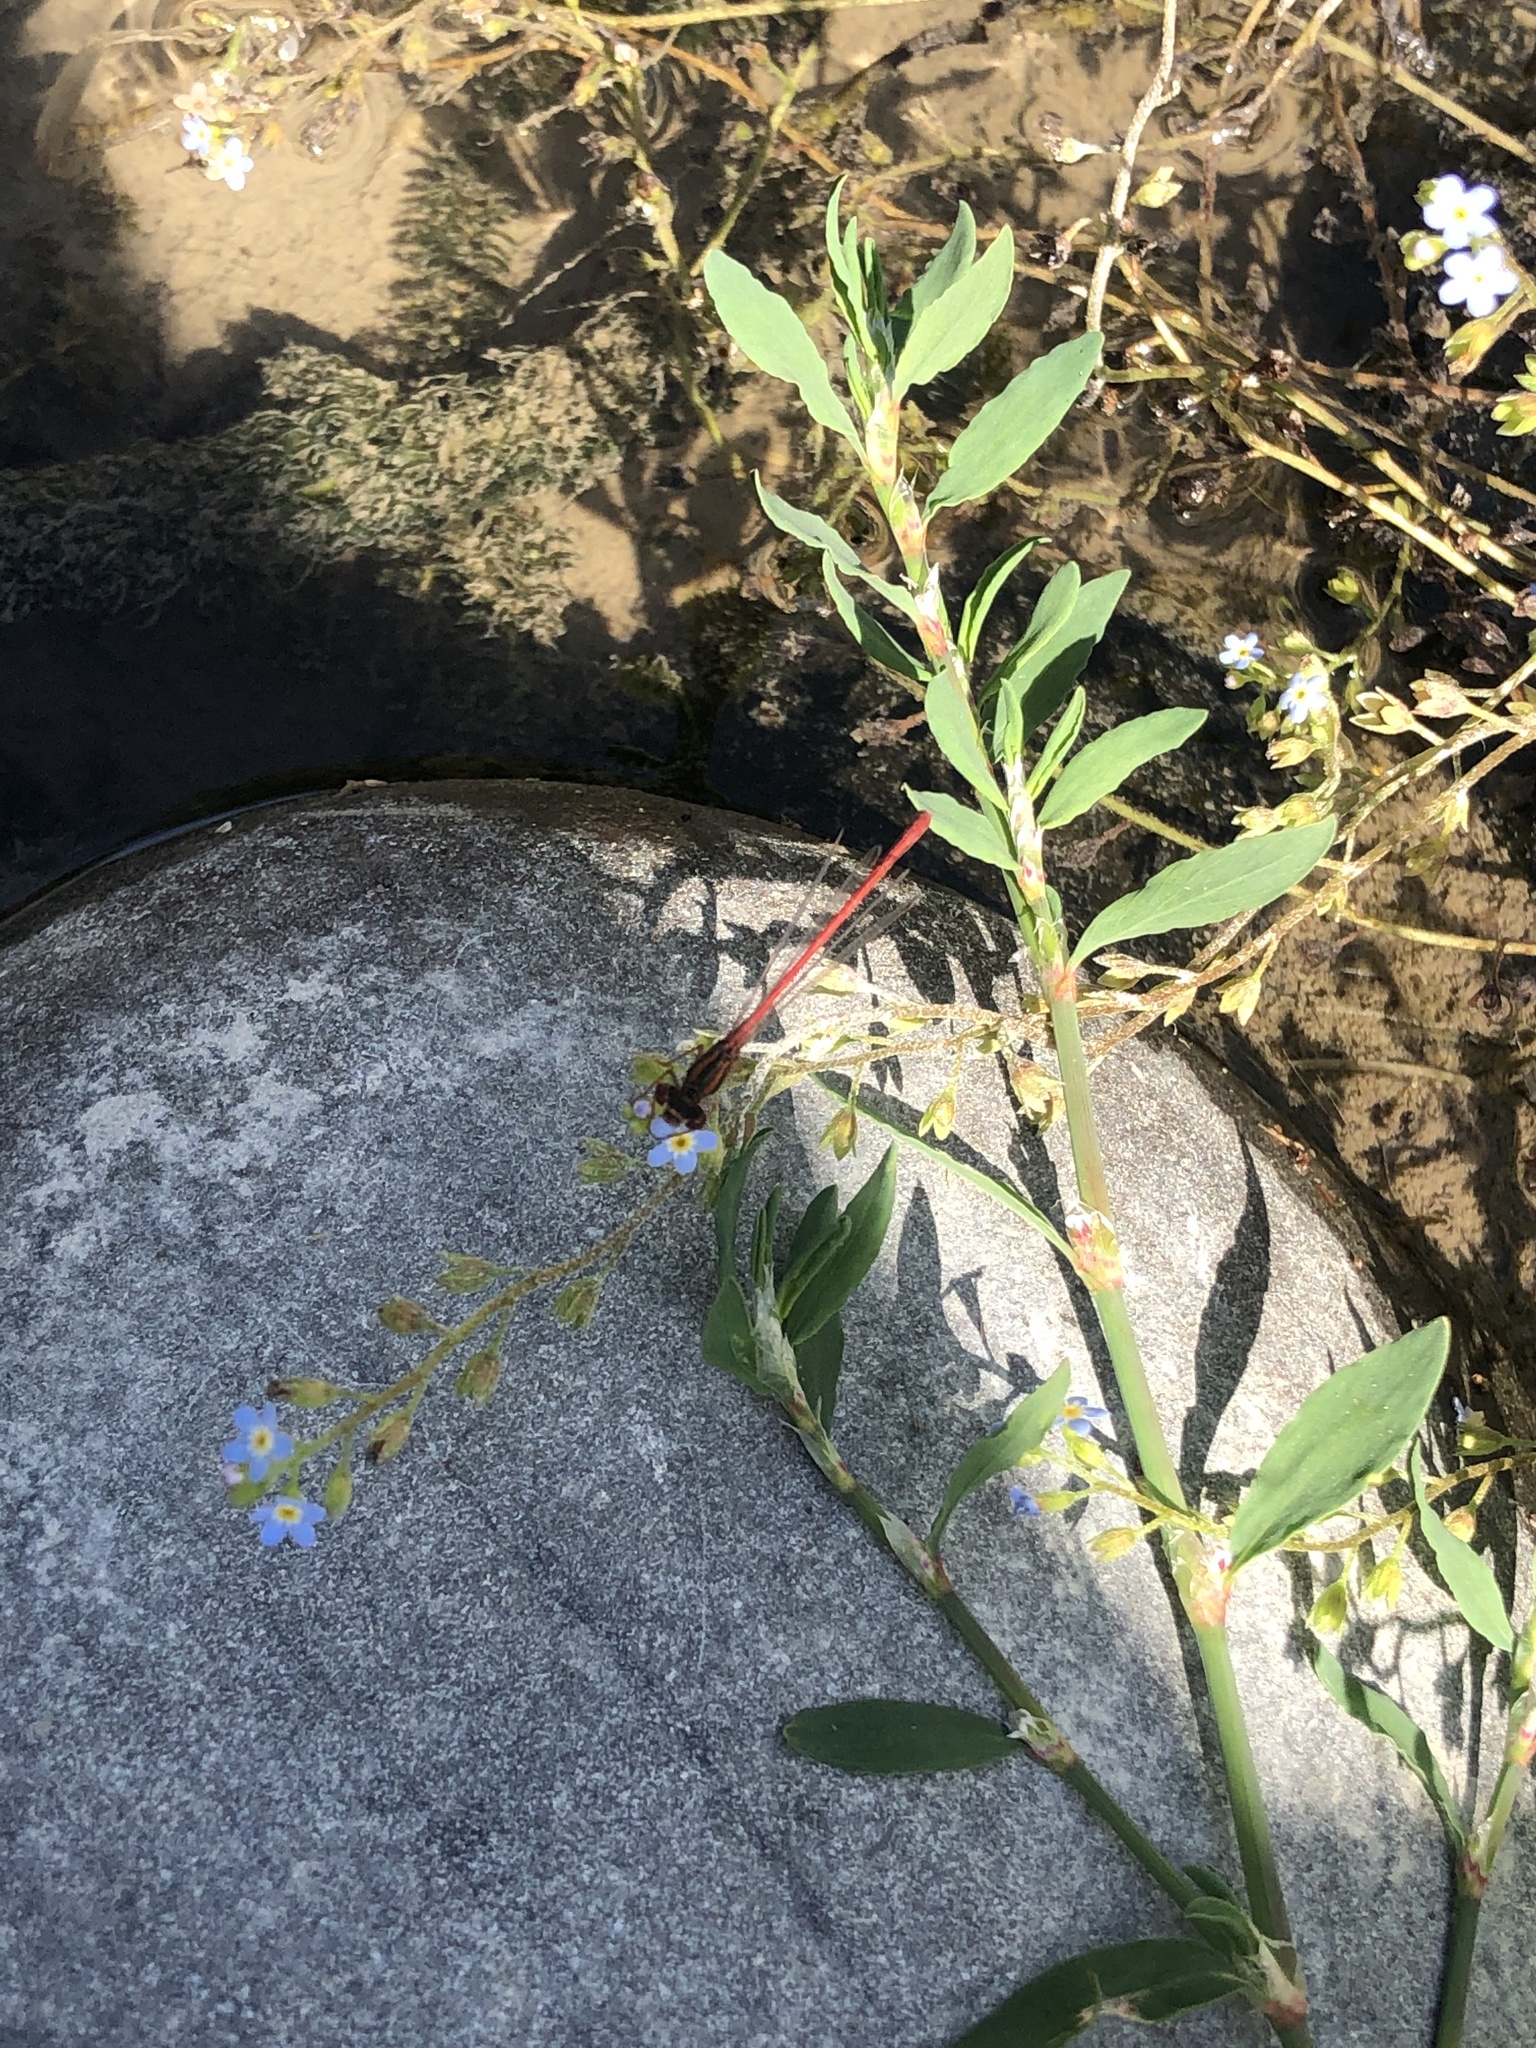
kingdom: Animalia
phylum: Arthropoda
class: Insecta
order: Odonata
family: Coenagrionidae
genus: Xanthocnemis
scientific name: Xanthocnemis zealandica
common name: Common redcoat damselfly
